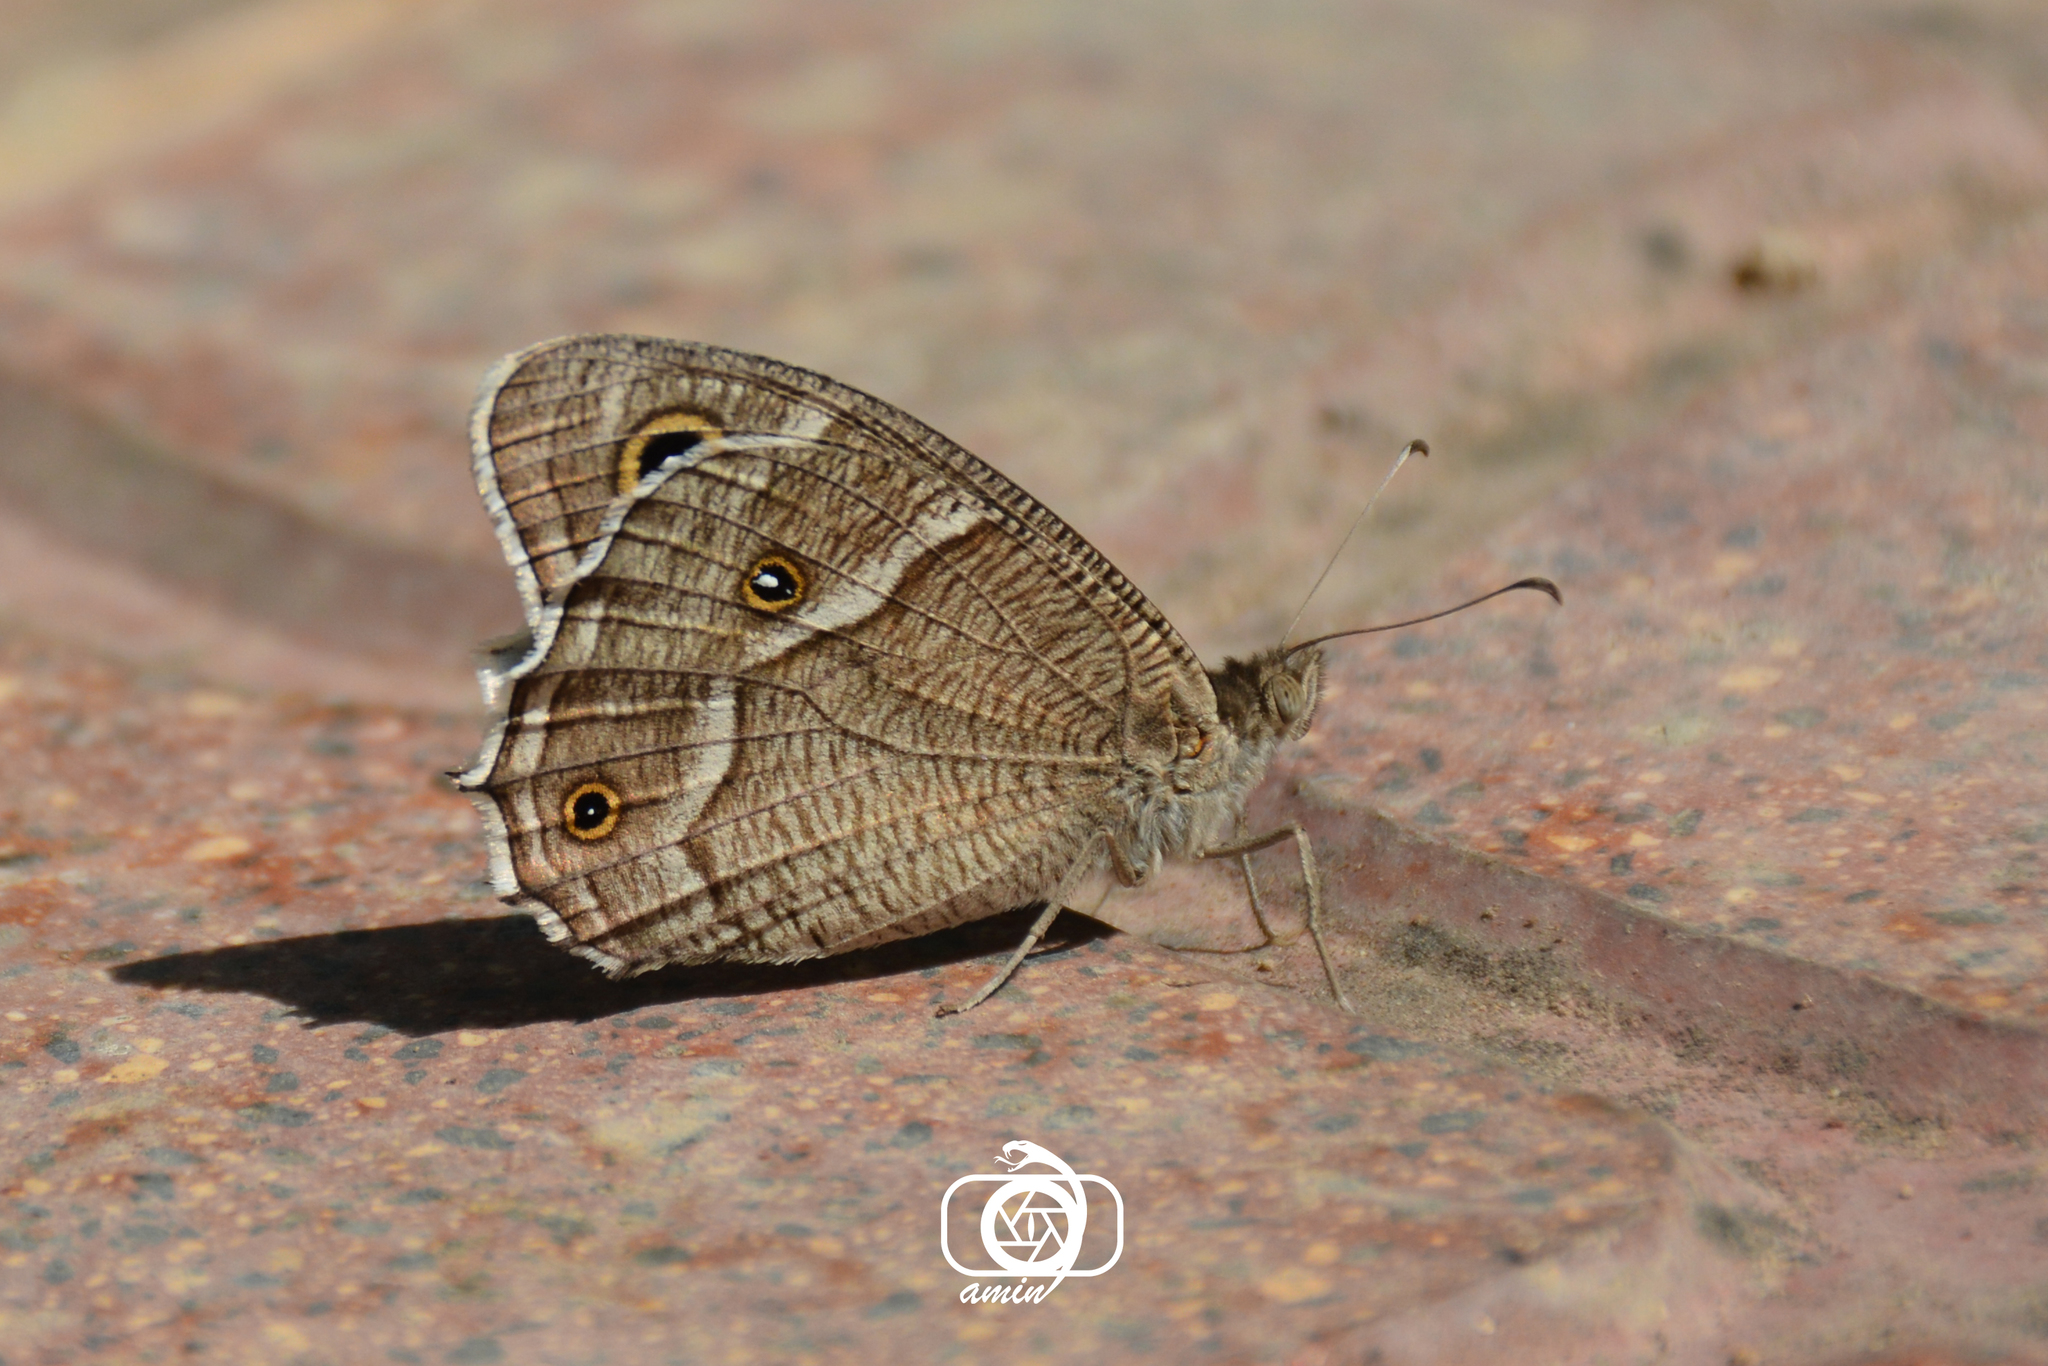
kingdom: Animalia
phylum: Arthropoda
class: Insecta
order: Lepidoptera
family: Nymphalidae
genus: Hipparchia
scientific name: Hipparchia parisatis
